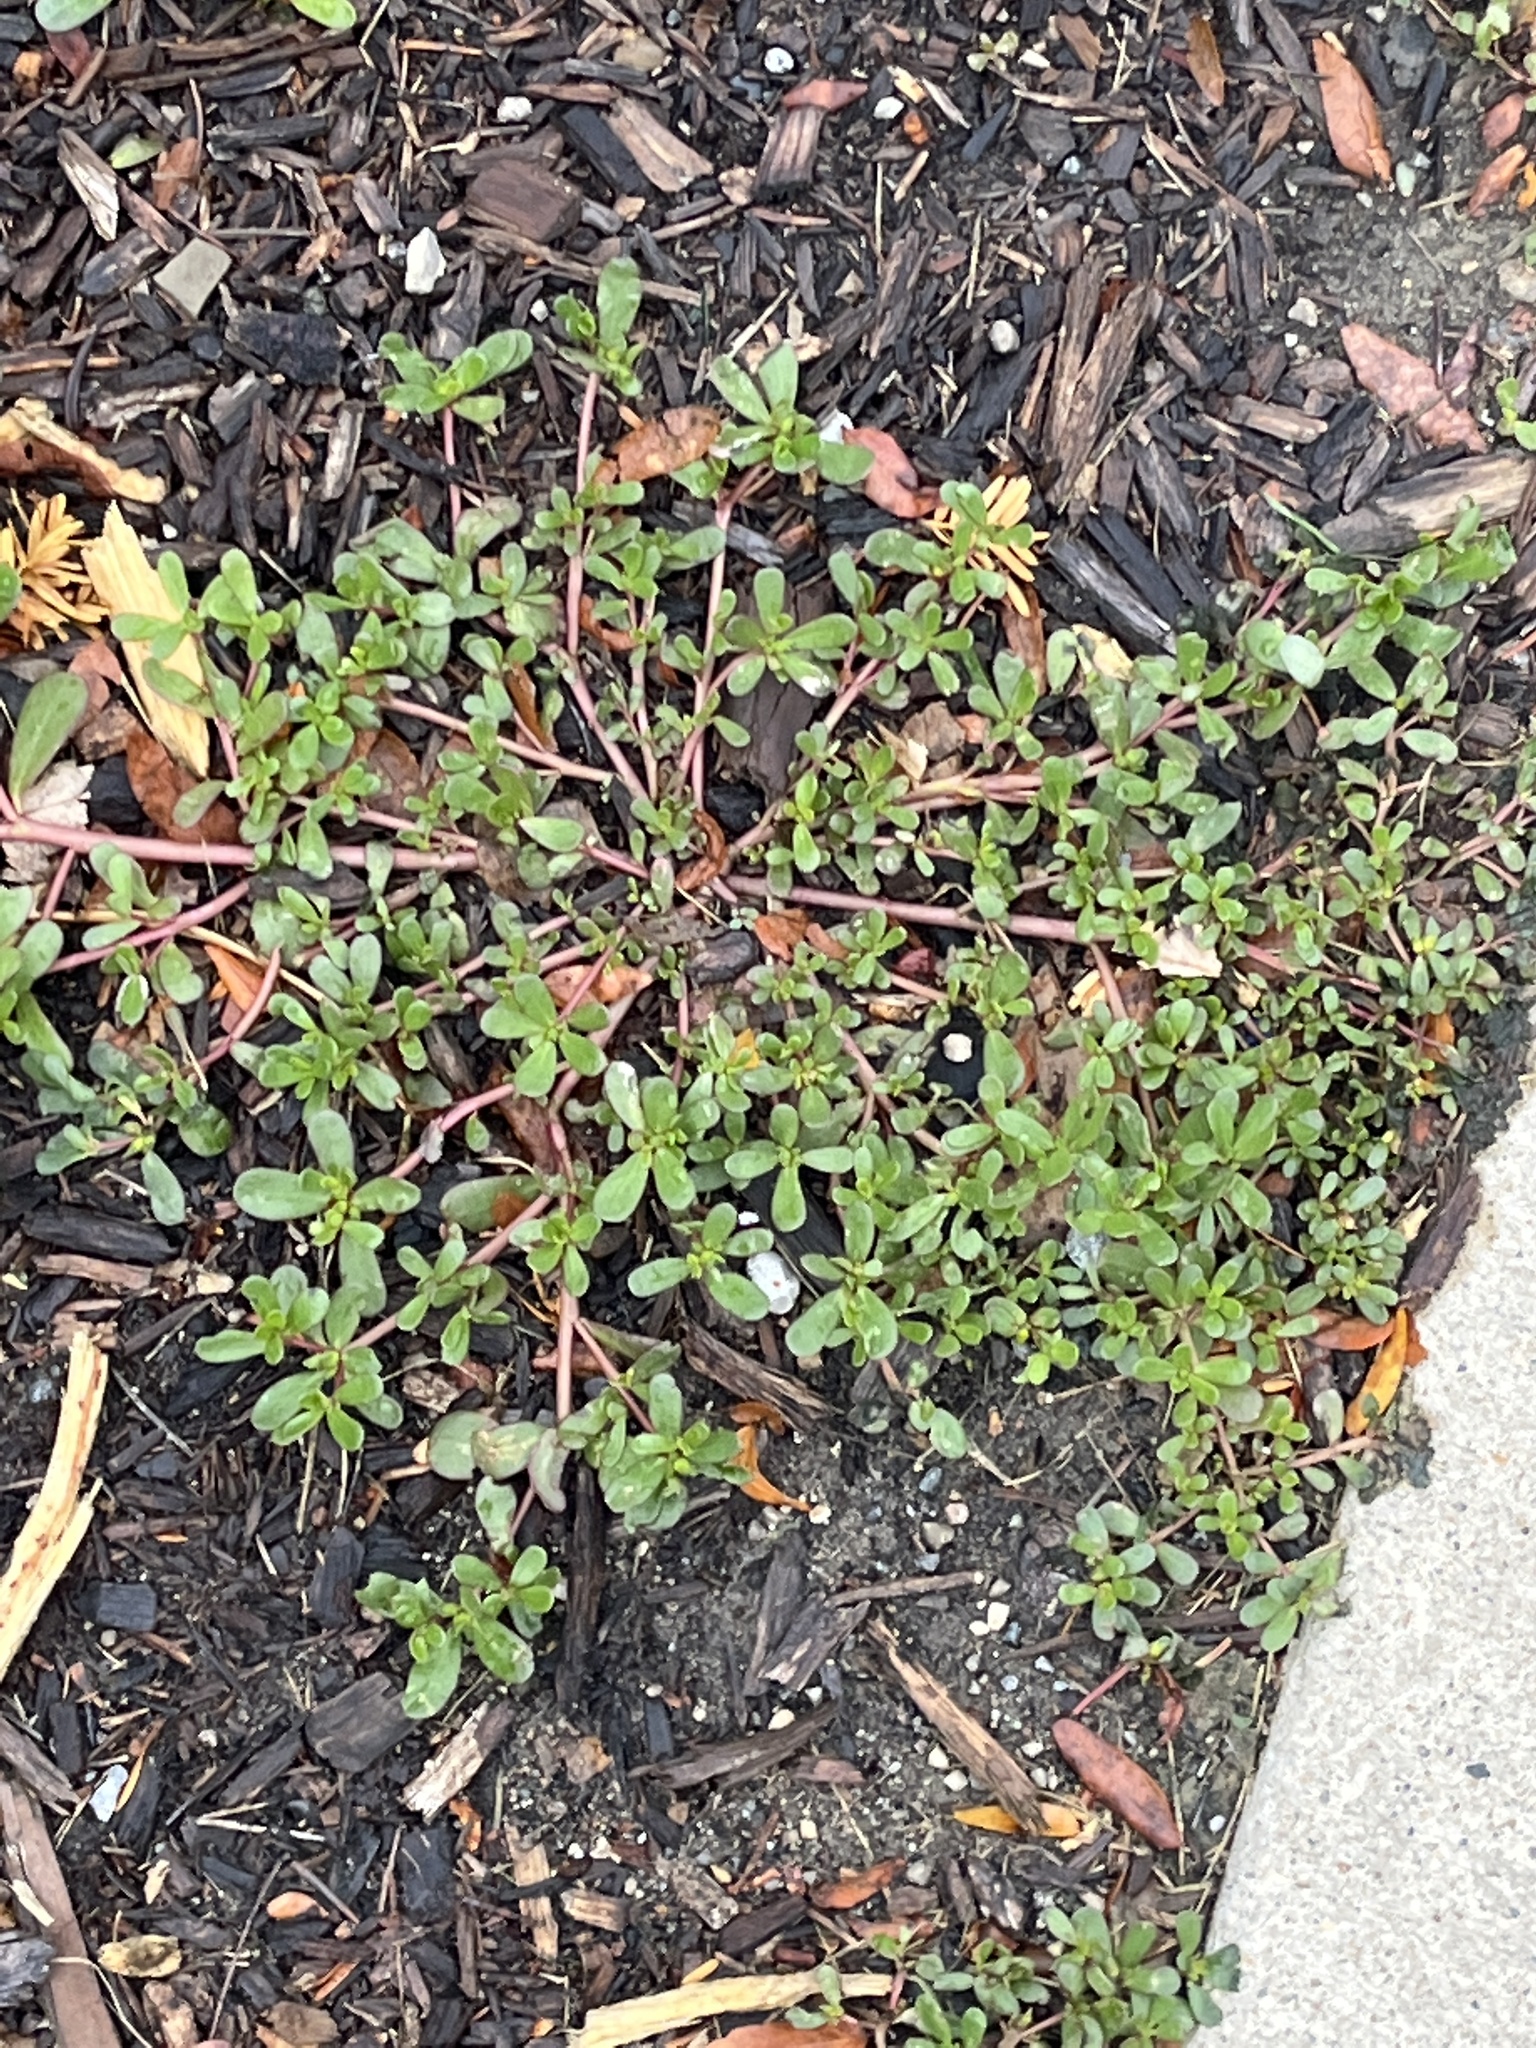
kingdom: Plantae
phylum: Tracheophyta
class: Magnoliopsida
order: Caryophyllales
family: Portulacaceae
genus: Portulaca
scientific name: Portulaca oleracea
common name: Common purslane
